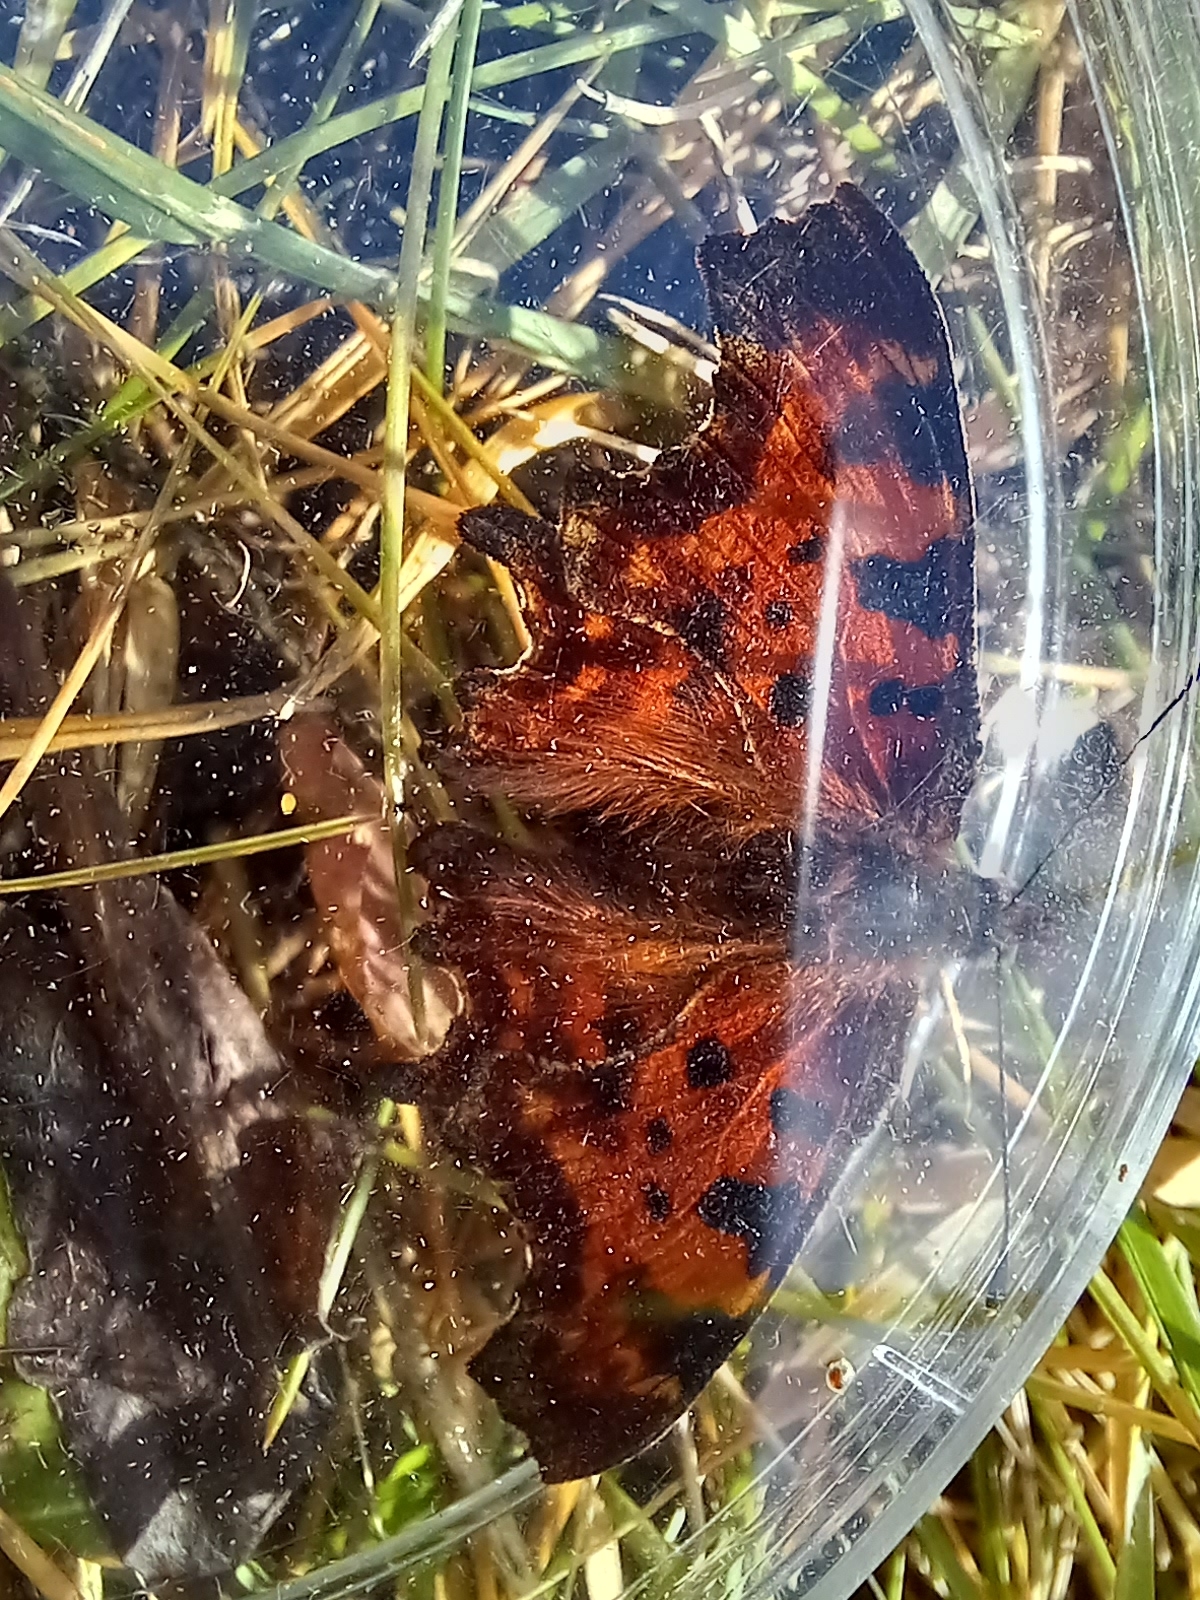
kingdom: Animalia
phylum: Arthropoda
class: Insecta
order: Lepidoptera
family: Nymphalidae
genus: Polygonia
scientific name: Polygonia c-album
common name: Comma
